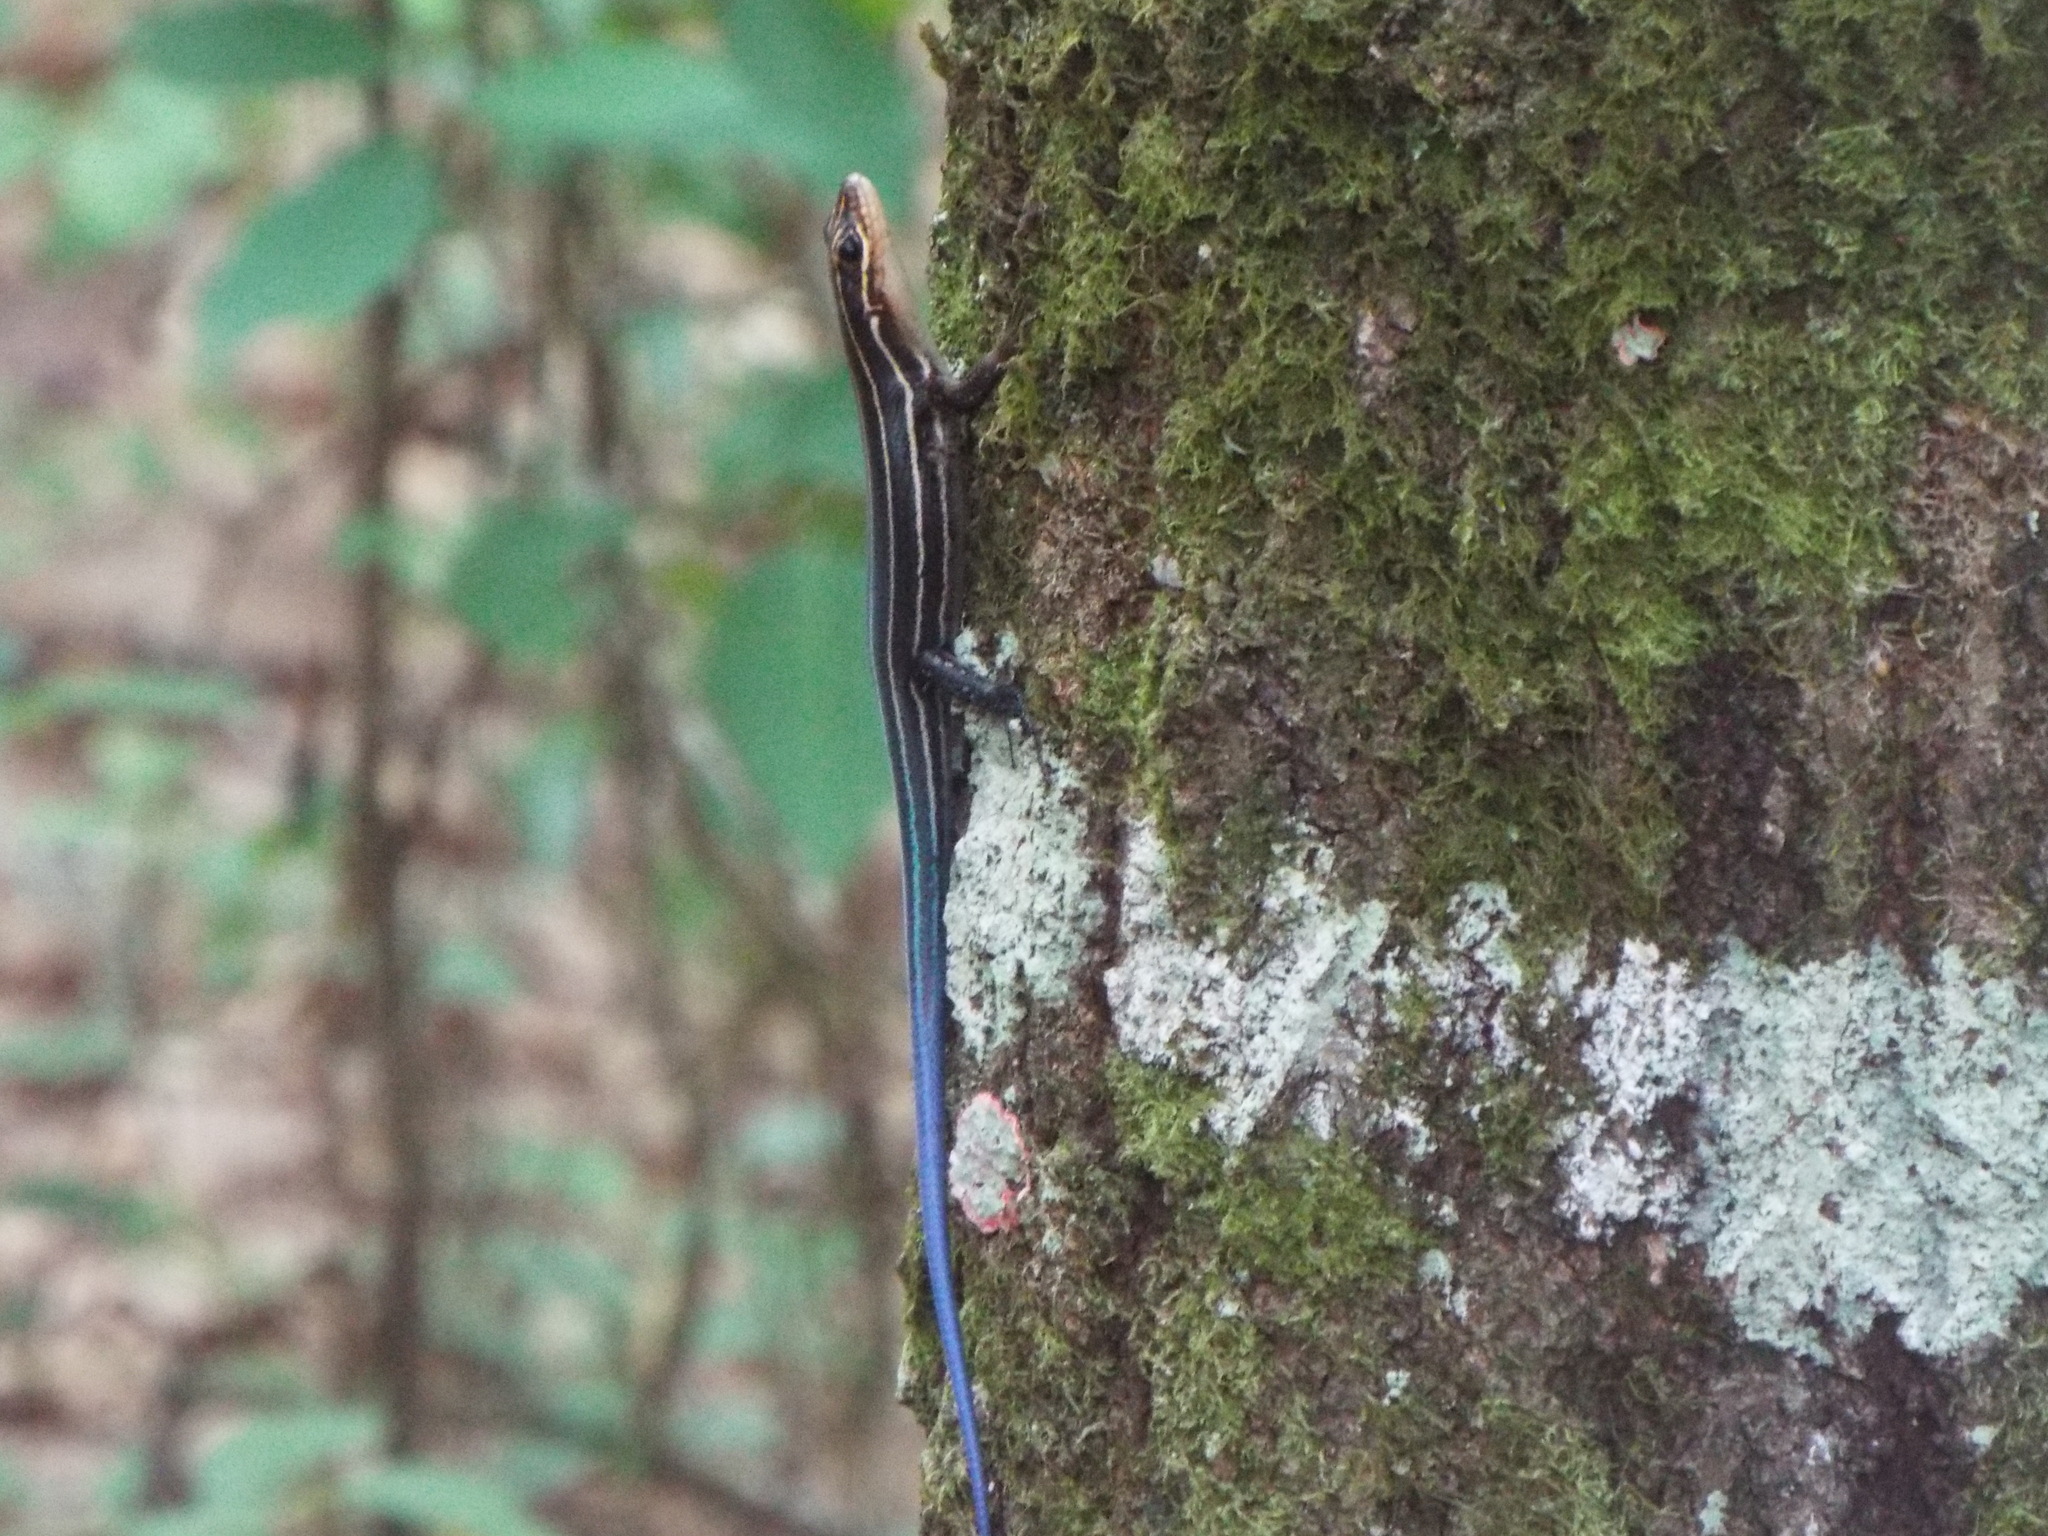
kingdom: Animalia
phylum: Chordata
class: Squamata
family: Scincidae
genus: Plestiodon
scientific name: Plestiodon laticeps
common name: Broadhead skink
